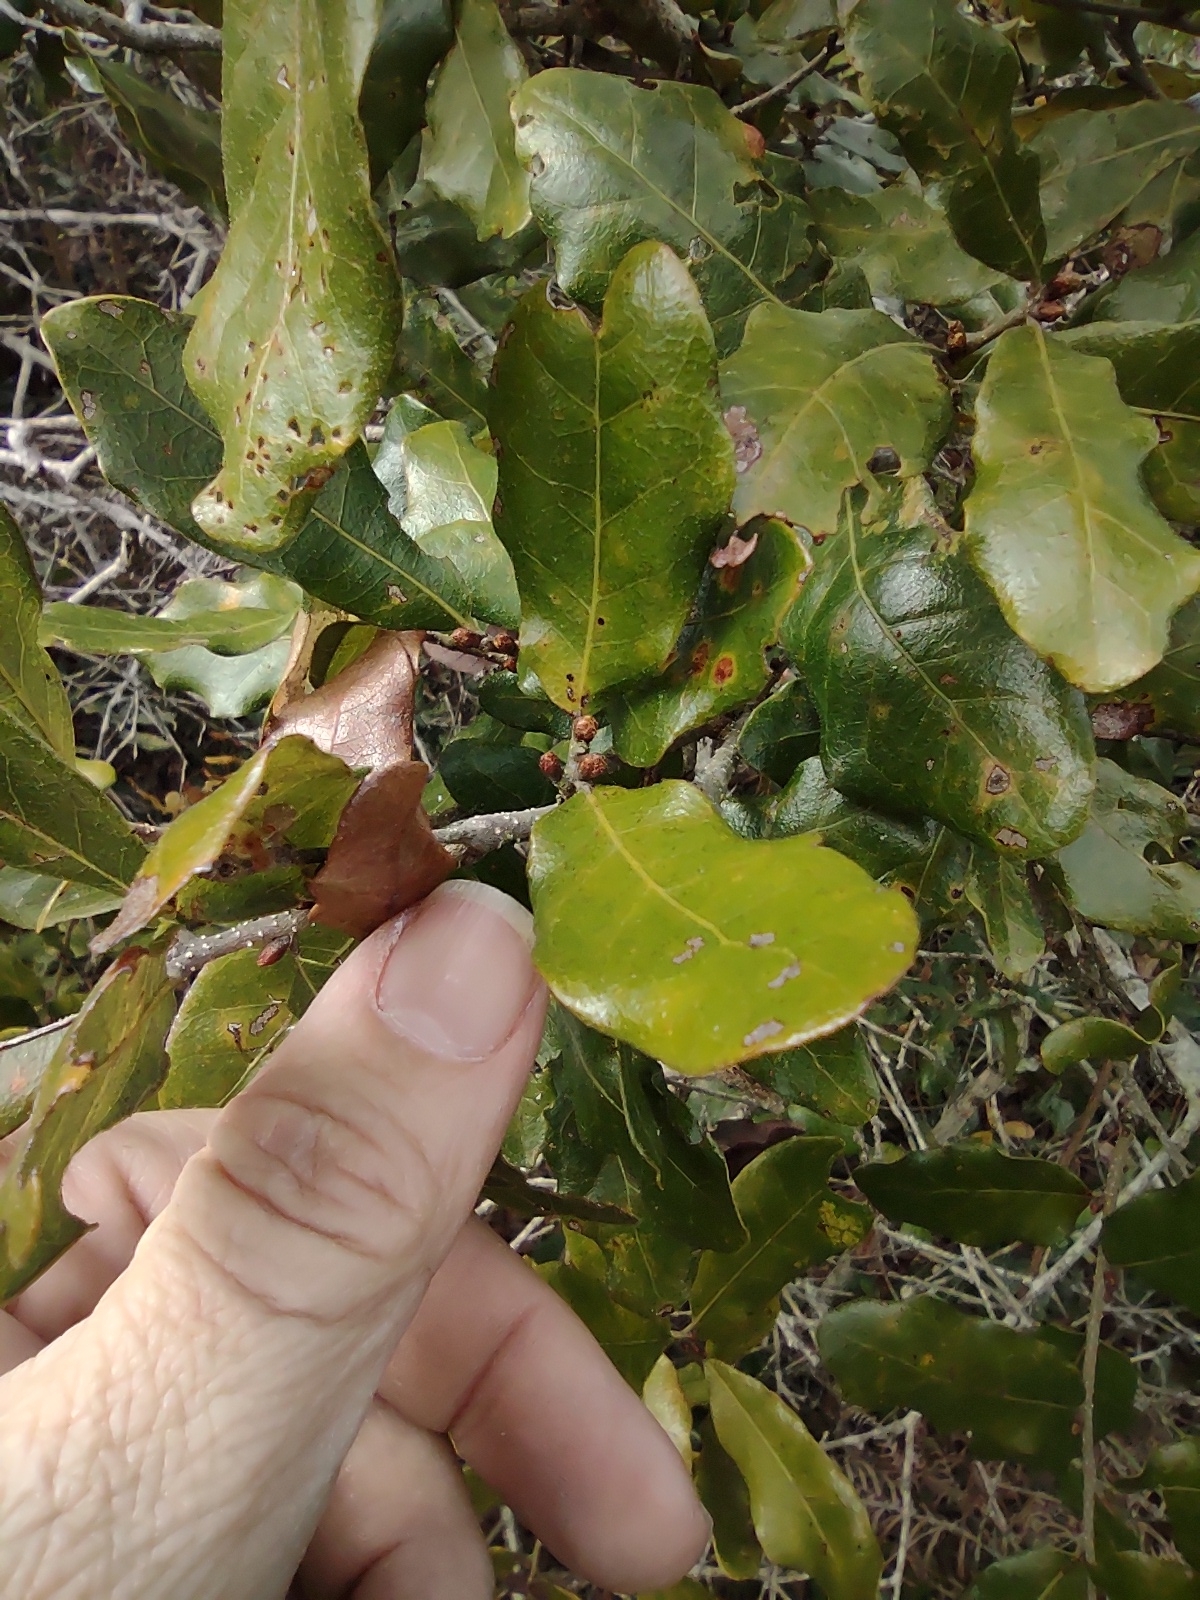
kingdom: Plantae
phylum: Tracheophyta
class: Magnoliopsida
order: Fagales
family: Fagaceae
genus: Quercus
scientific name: Quercus chapmanii
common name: Chapman oak
